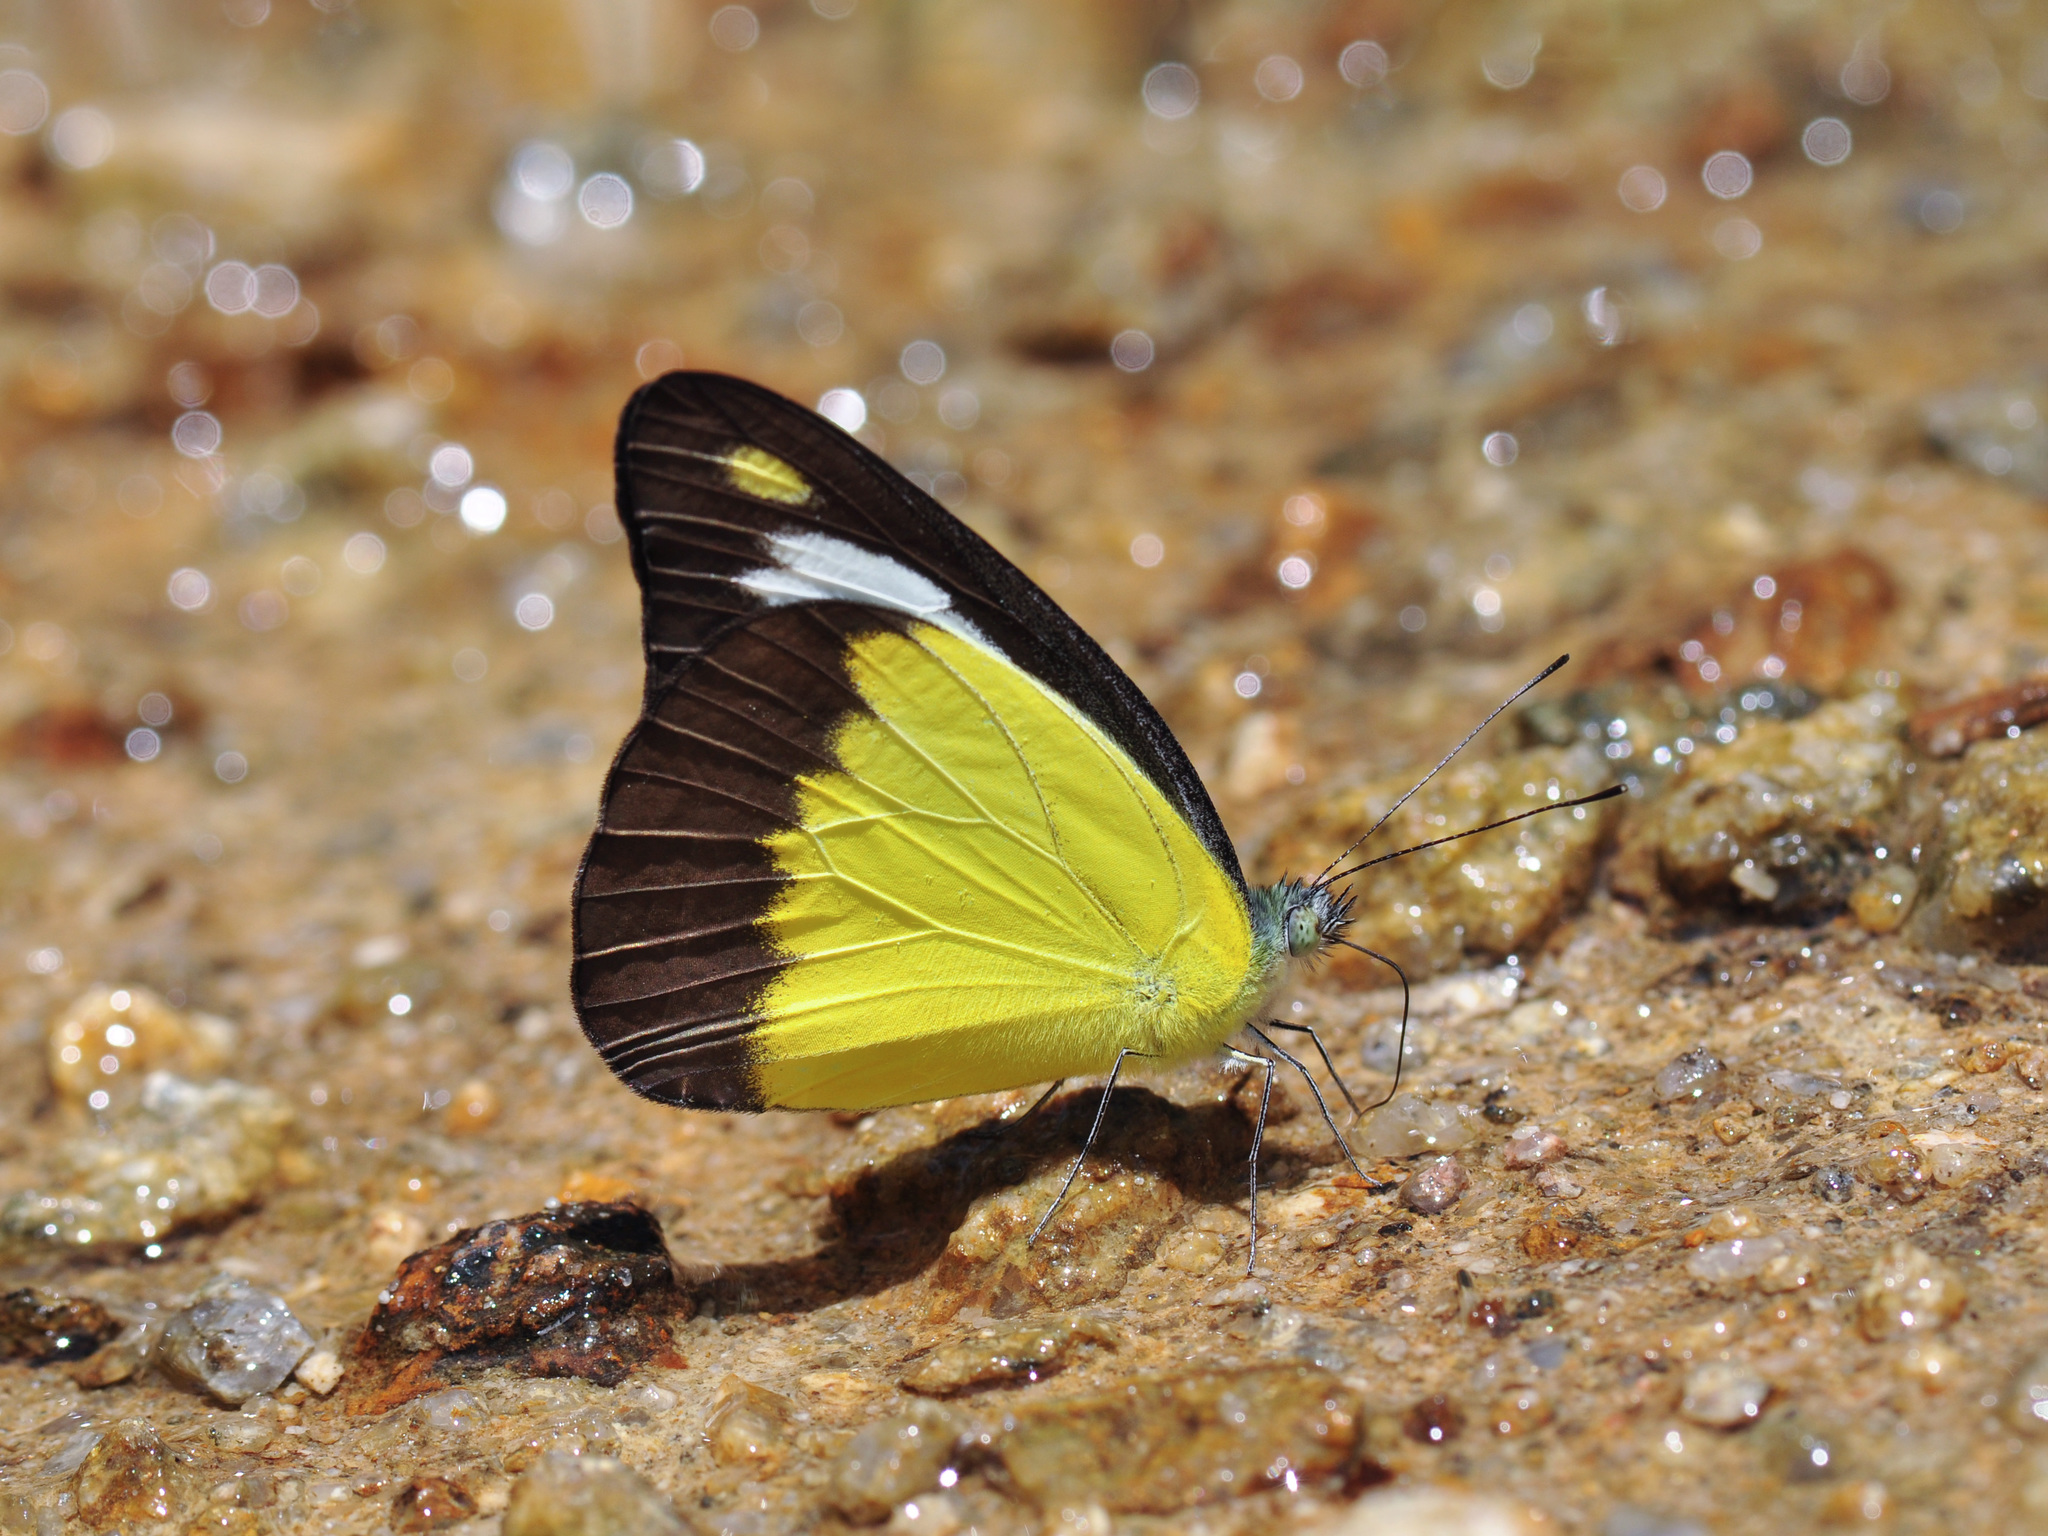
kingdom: Animalia
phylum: Arthropoda
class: Insecta
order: Lepidoptera
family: Pieridae
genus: Appias
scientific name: Appias lyncida
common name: Chocolate albatross
